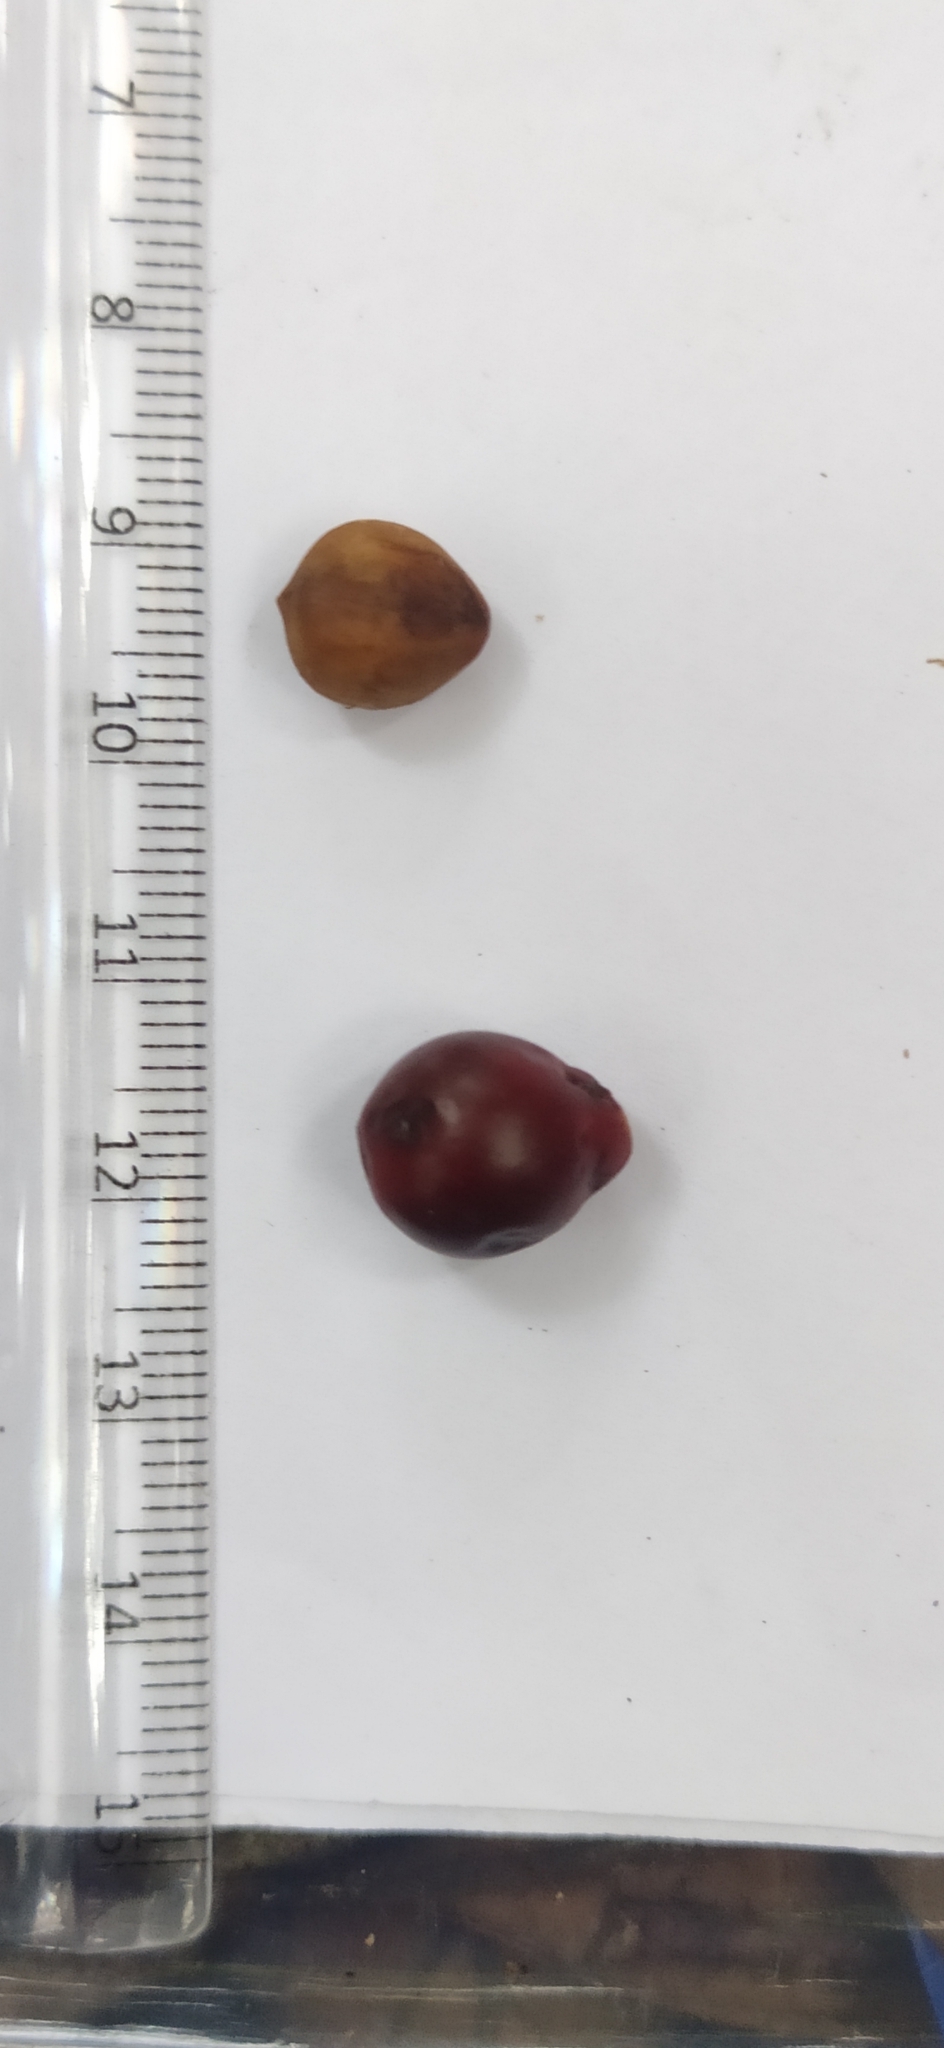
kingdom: Plantae
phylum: Tracheophyta
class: Magnoliopsida
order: Laurales
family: Lauraceae
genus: Actinodaphne
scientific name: Actinodaphne tadulingamii
